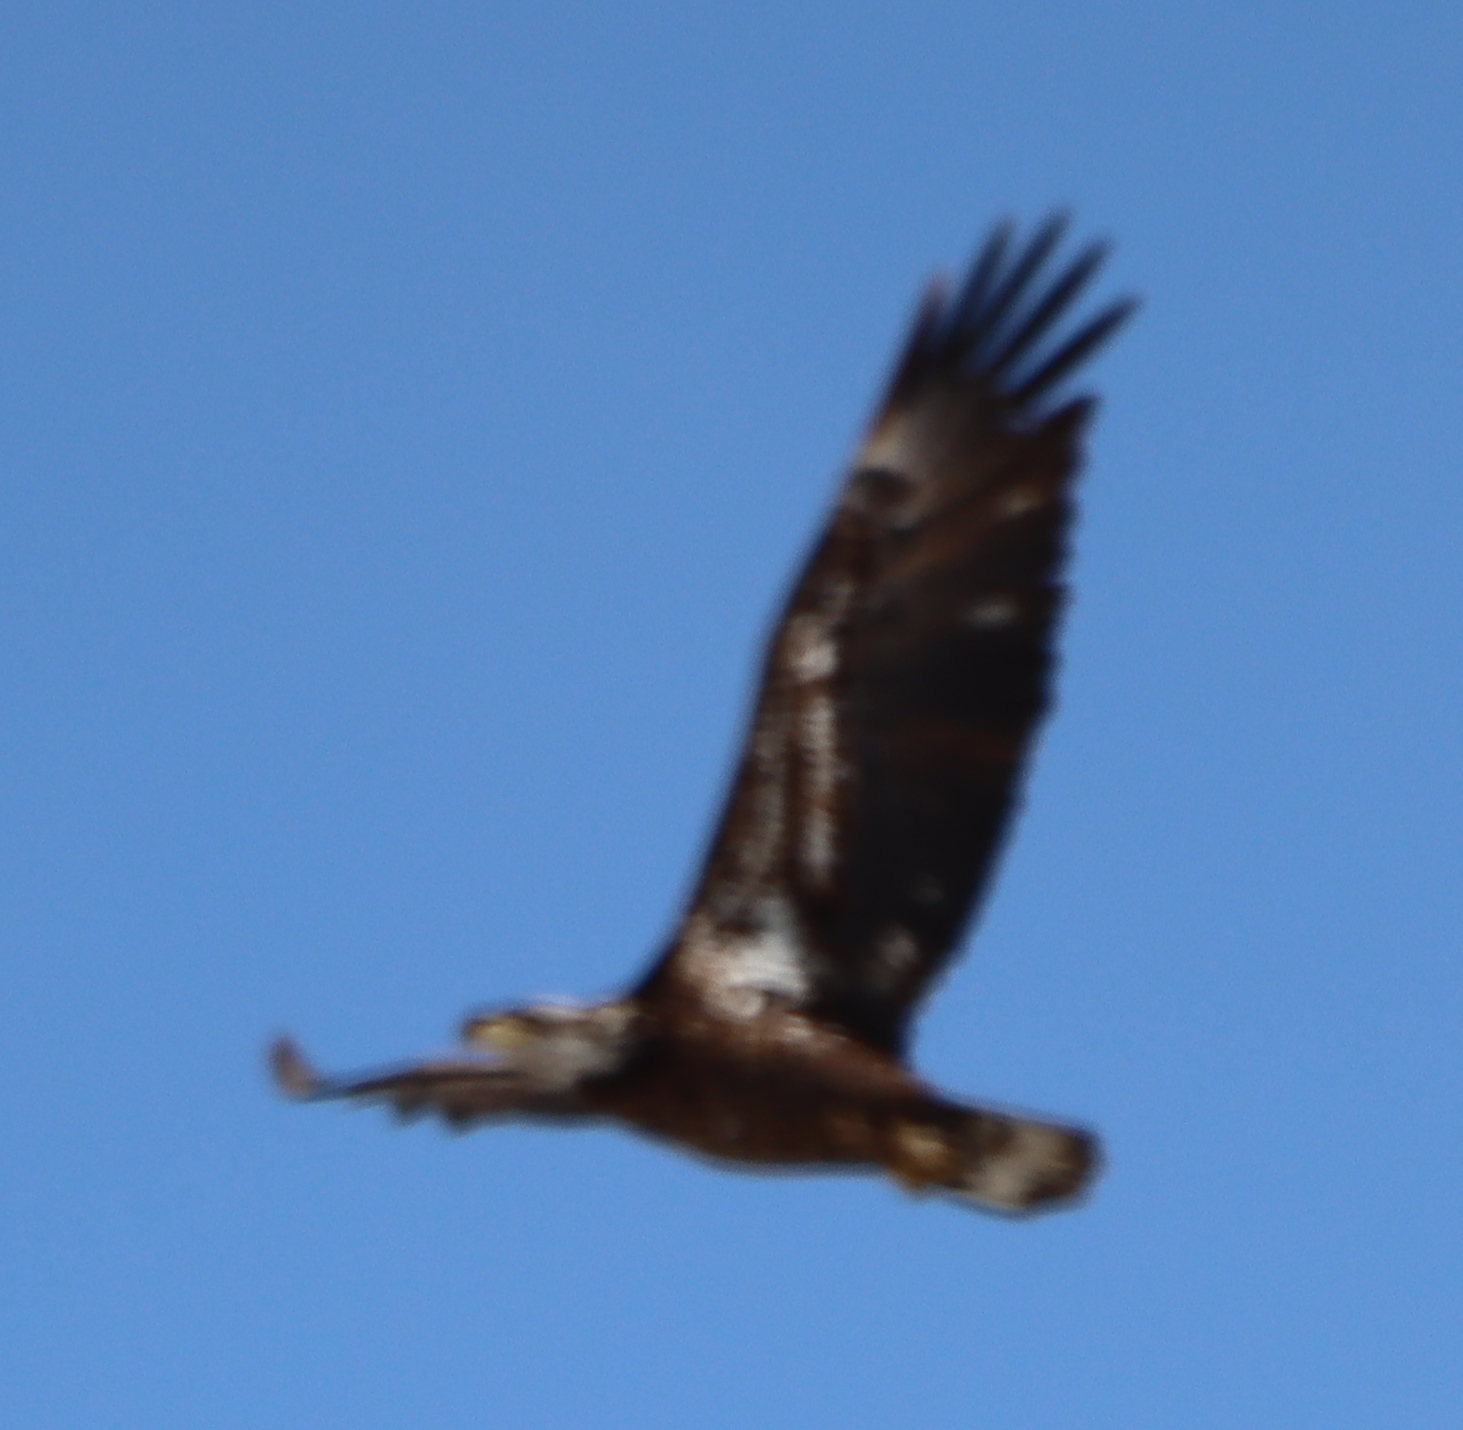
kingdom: Animalia
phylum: Chordata
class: Aves
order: Accipitriformes
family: Accipitridae
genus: Haliaeetus
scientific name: Haliaeetus leucocephalus
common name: Bald eagle
